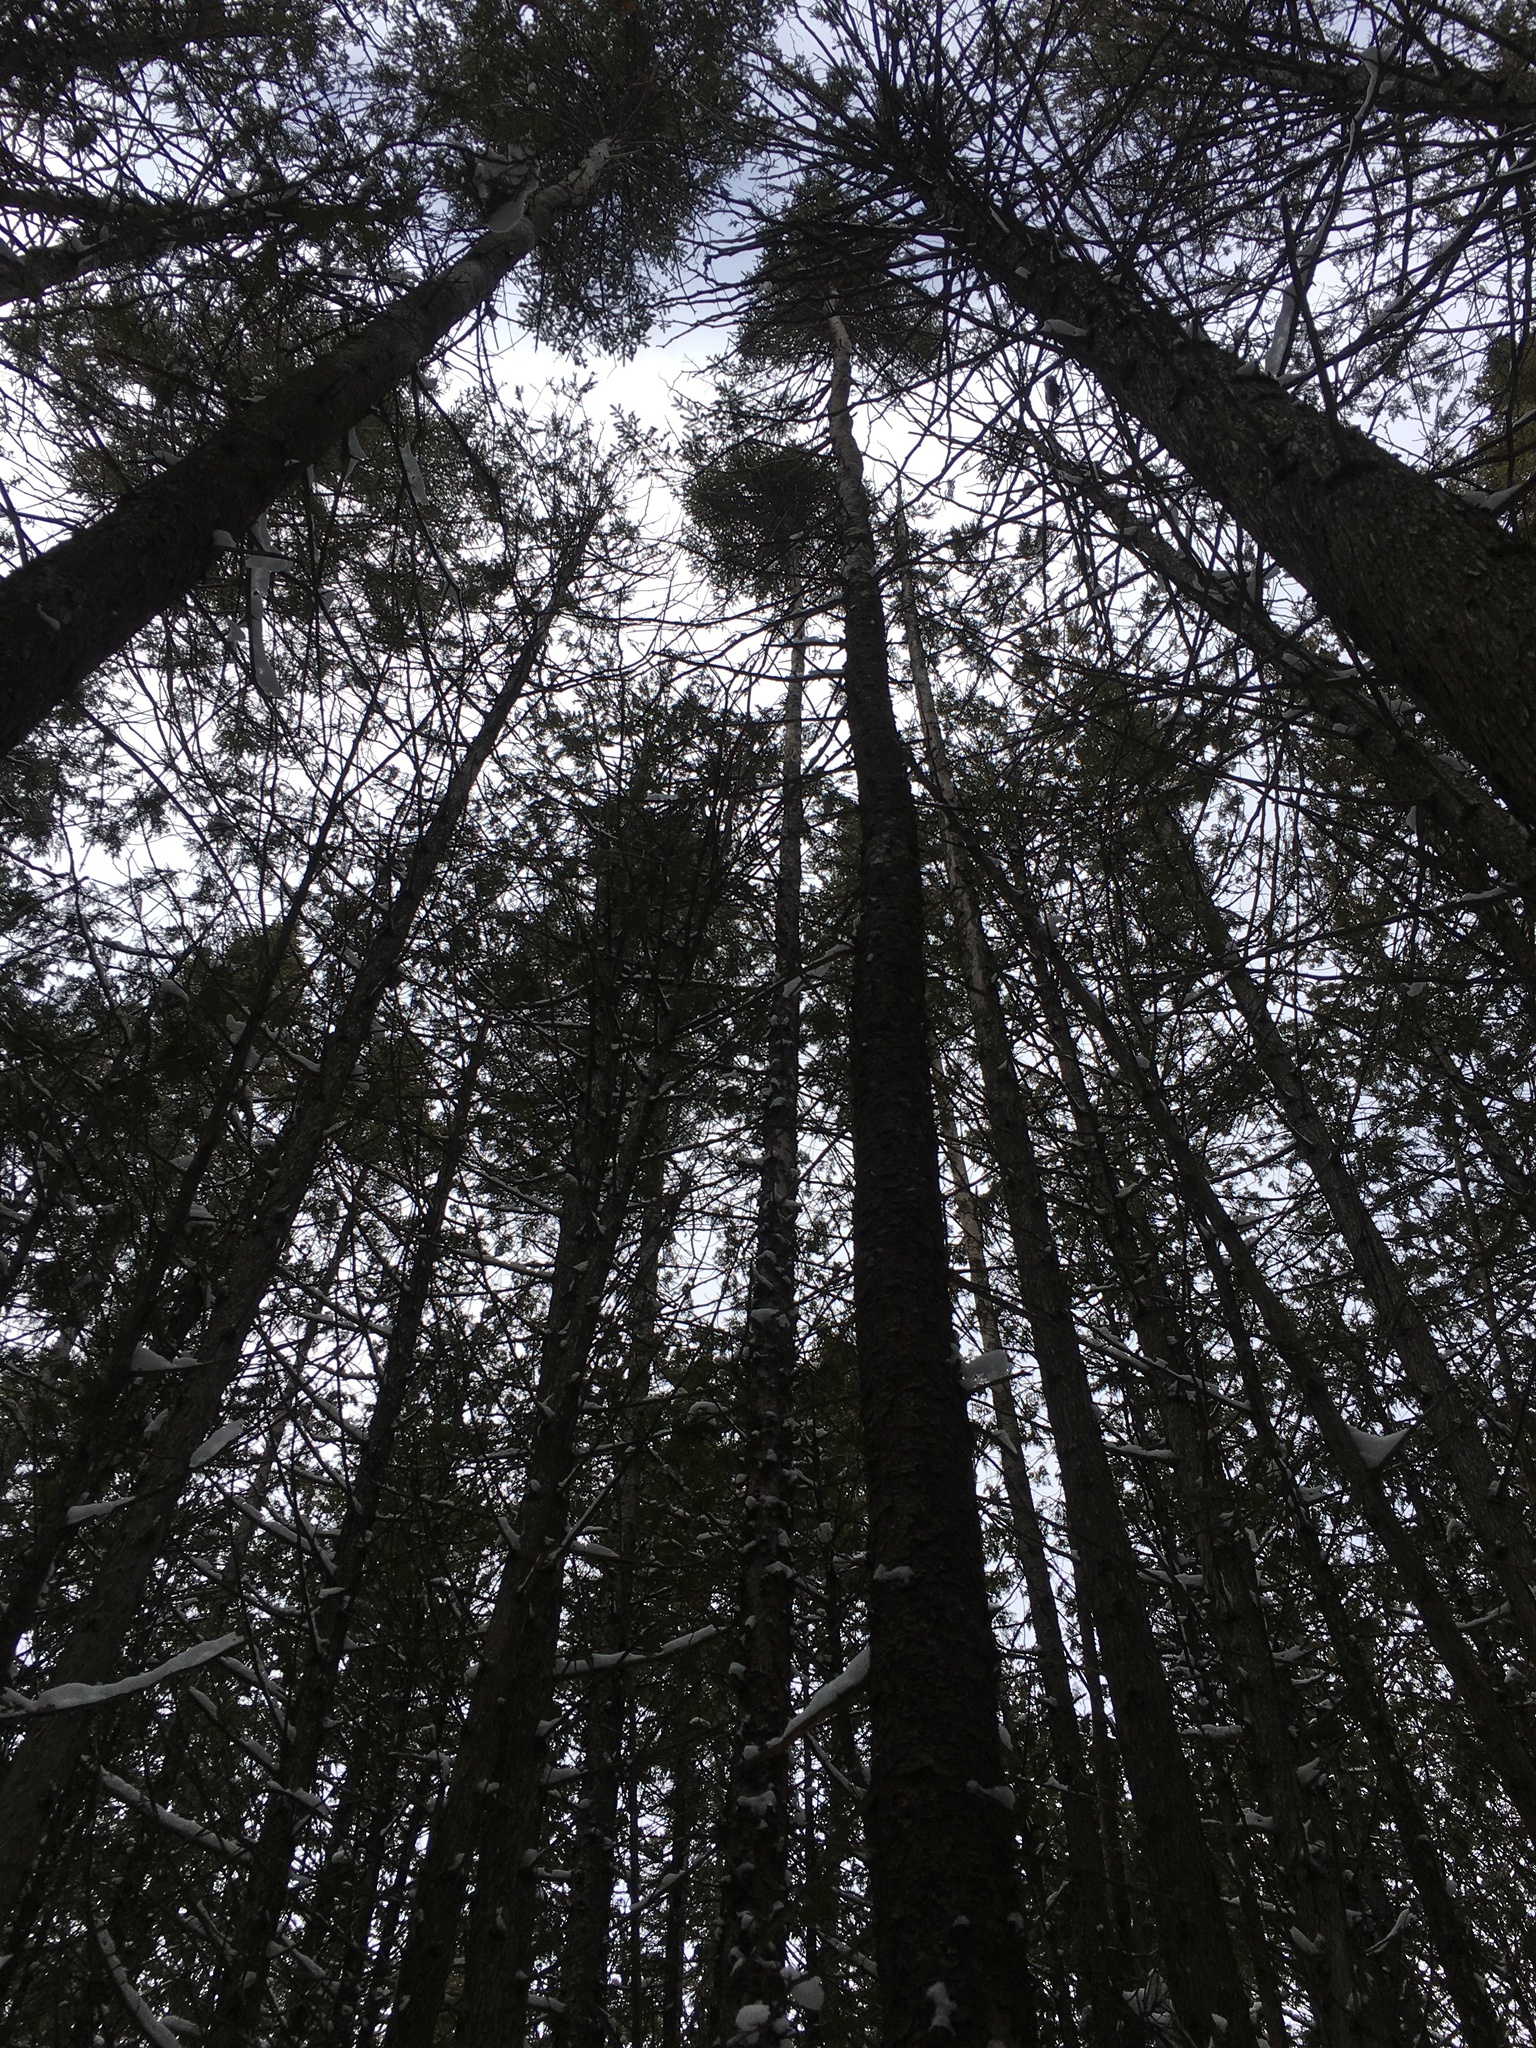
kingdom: Plantae
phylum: Tracheophyta
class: Pinopsida
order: Pinales
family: Pinaceae
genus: Picea
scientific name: Picea mariana
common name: Black spruce
